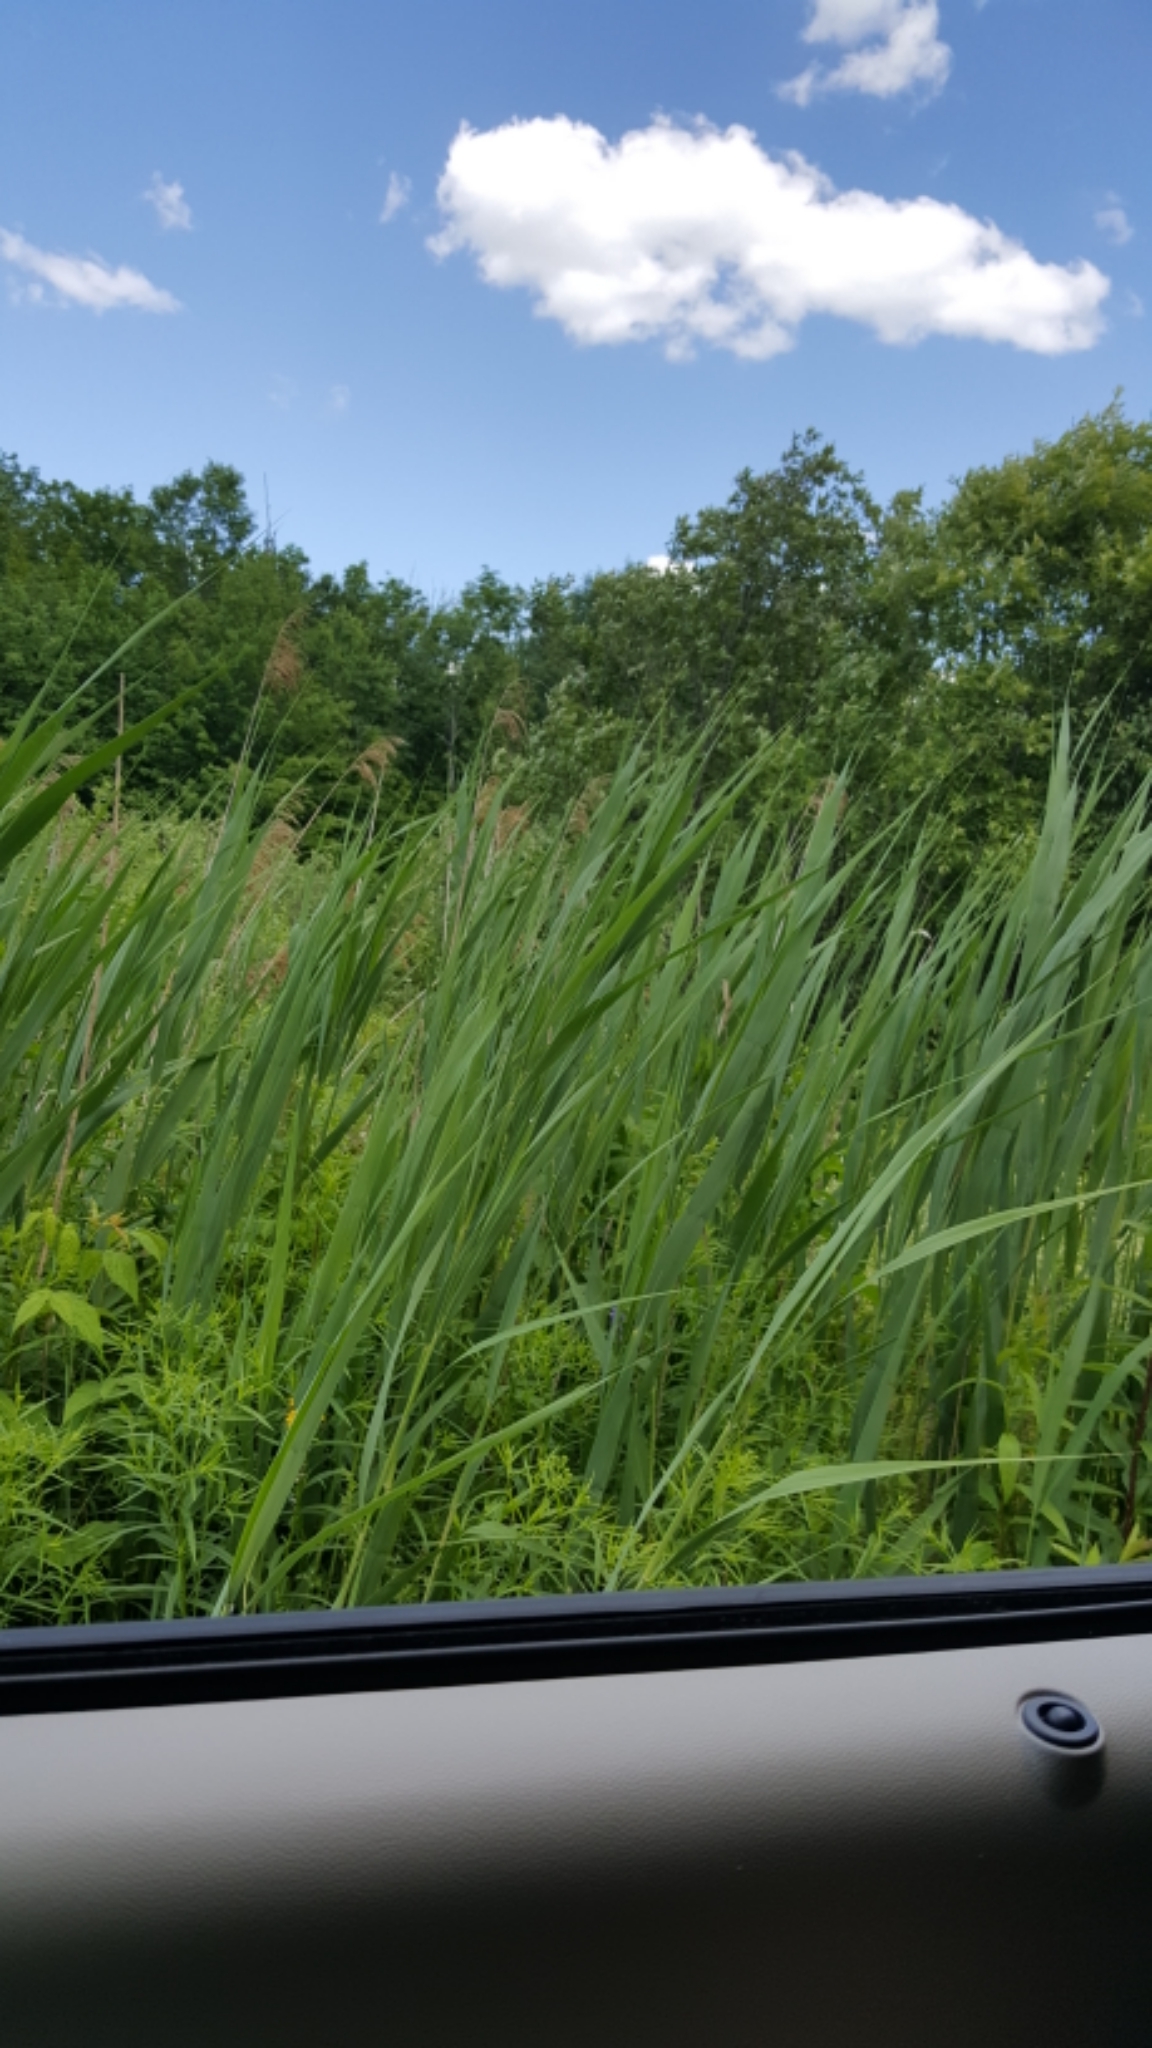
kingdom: Plantae
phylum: Tracheophyta
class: Liliopsida
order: Poales
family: Poaceae
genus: Phragmites
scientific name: Phragmites australis
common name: Common reed
